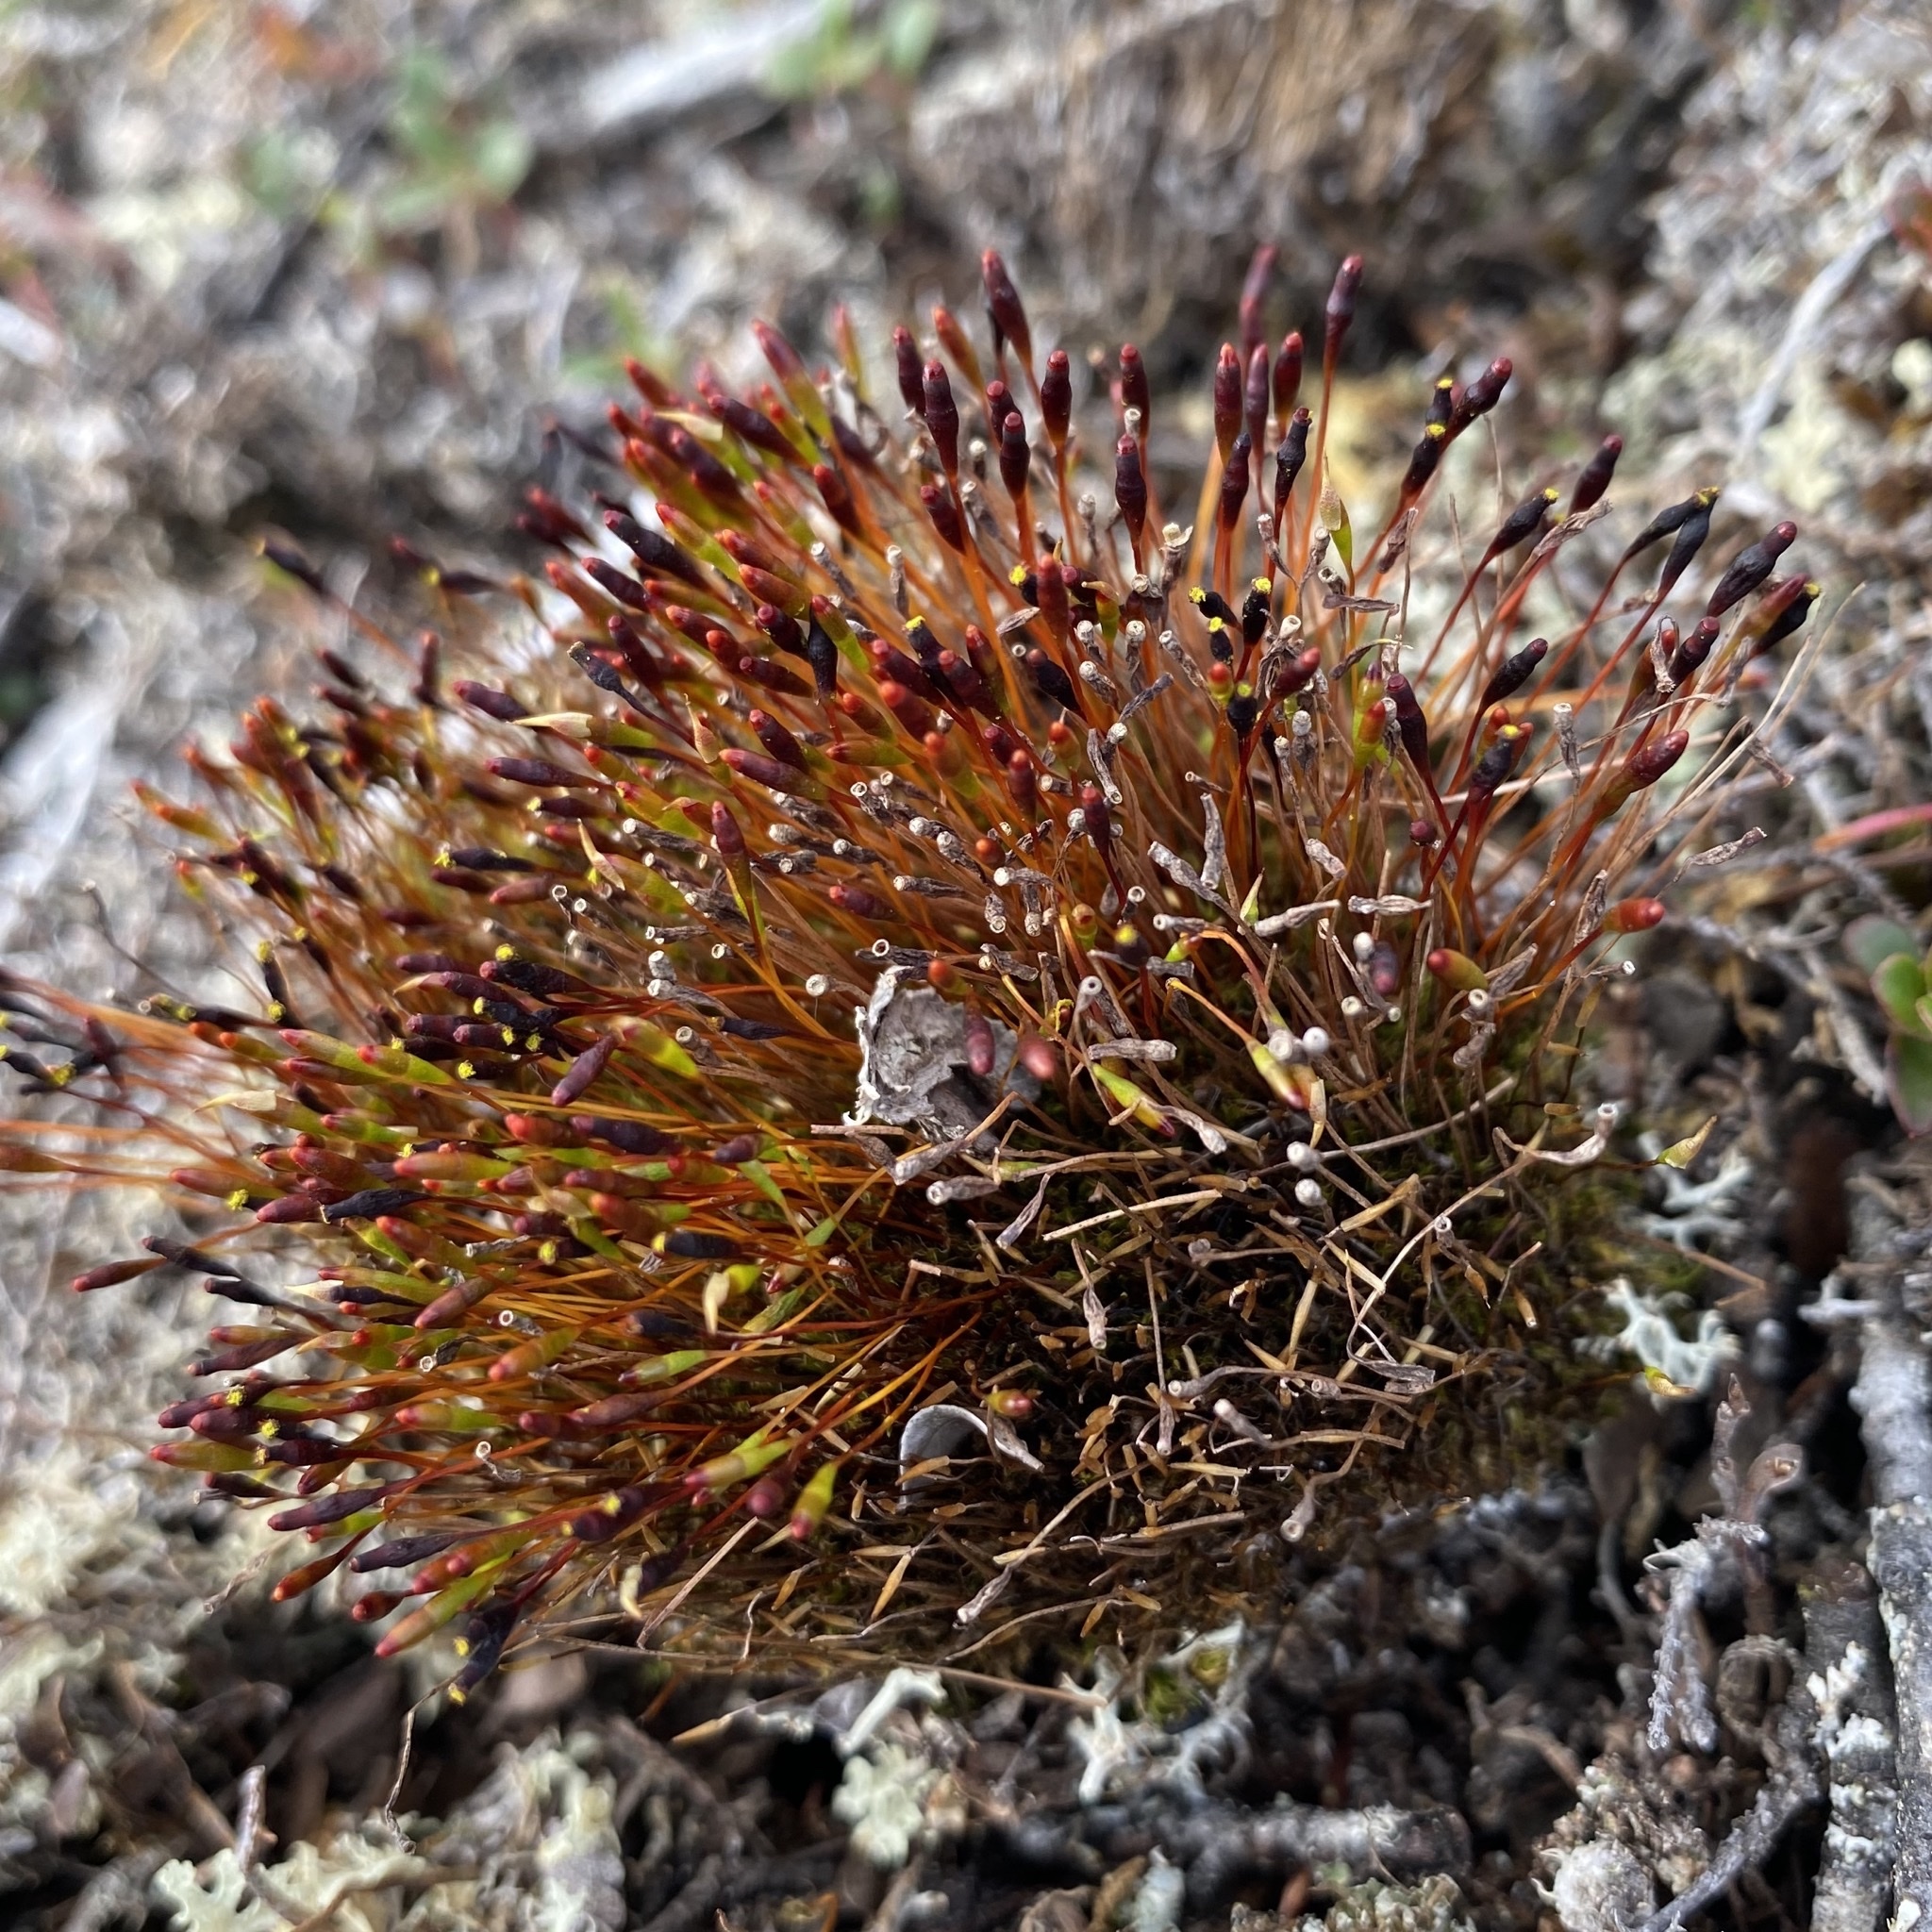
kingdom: Plantae
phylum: Bryophyta
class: Bryopsida
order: Splachnales
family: Splachnaceae
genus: Tetraplodon
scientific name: Tetraplodon mnioides
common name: Entire-leaved nitrogen moss
